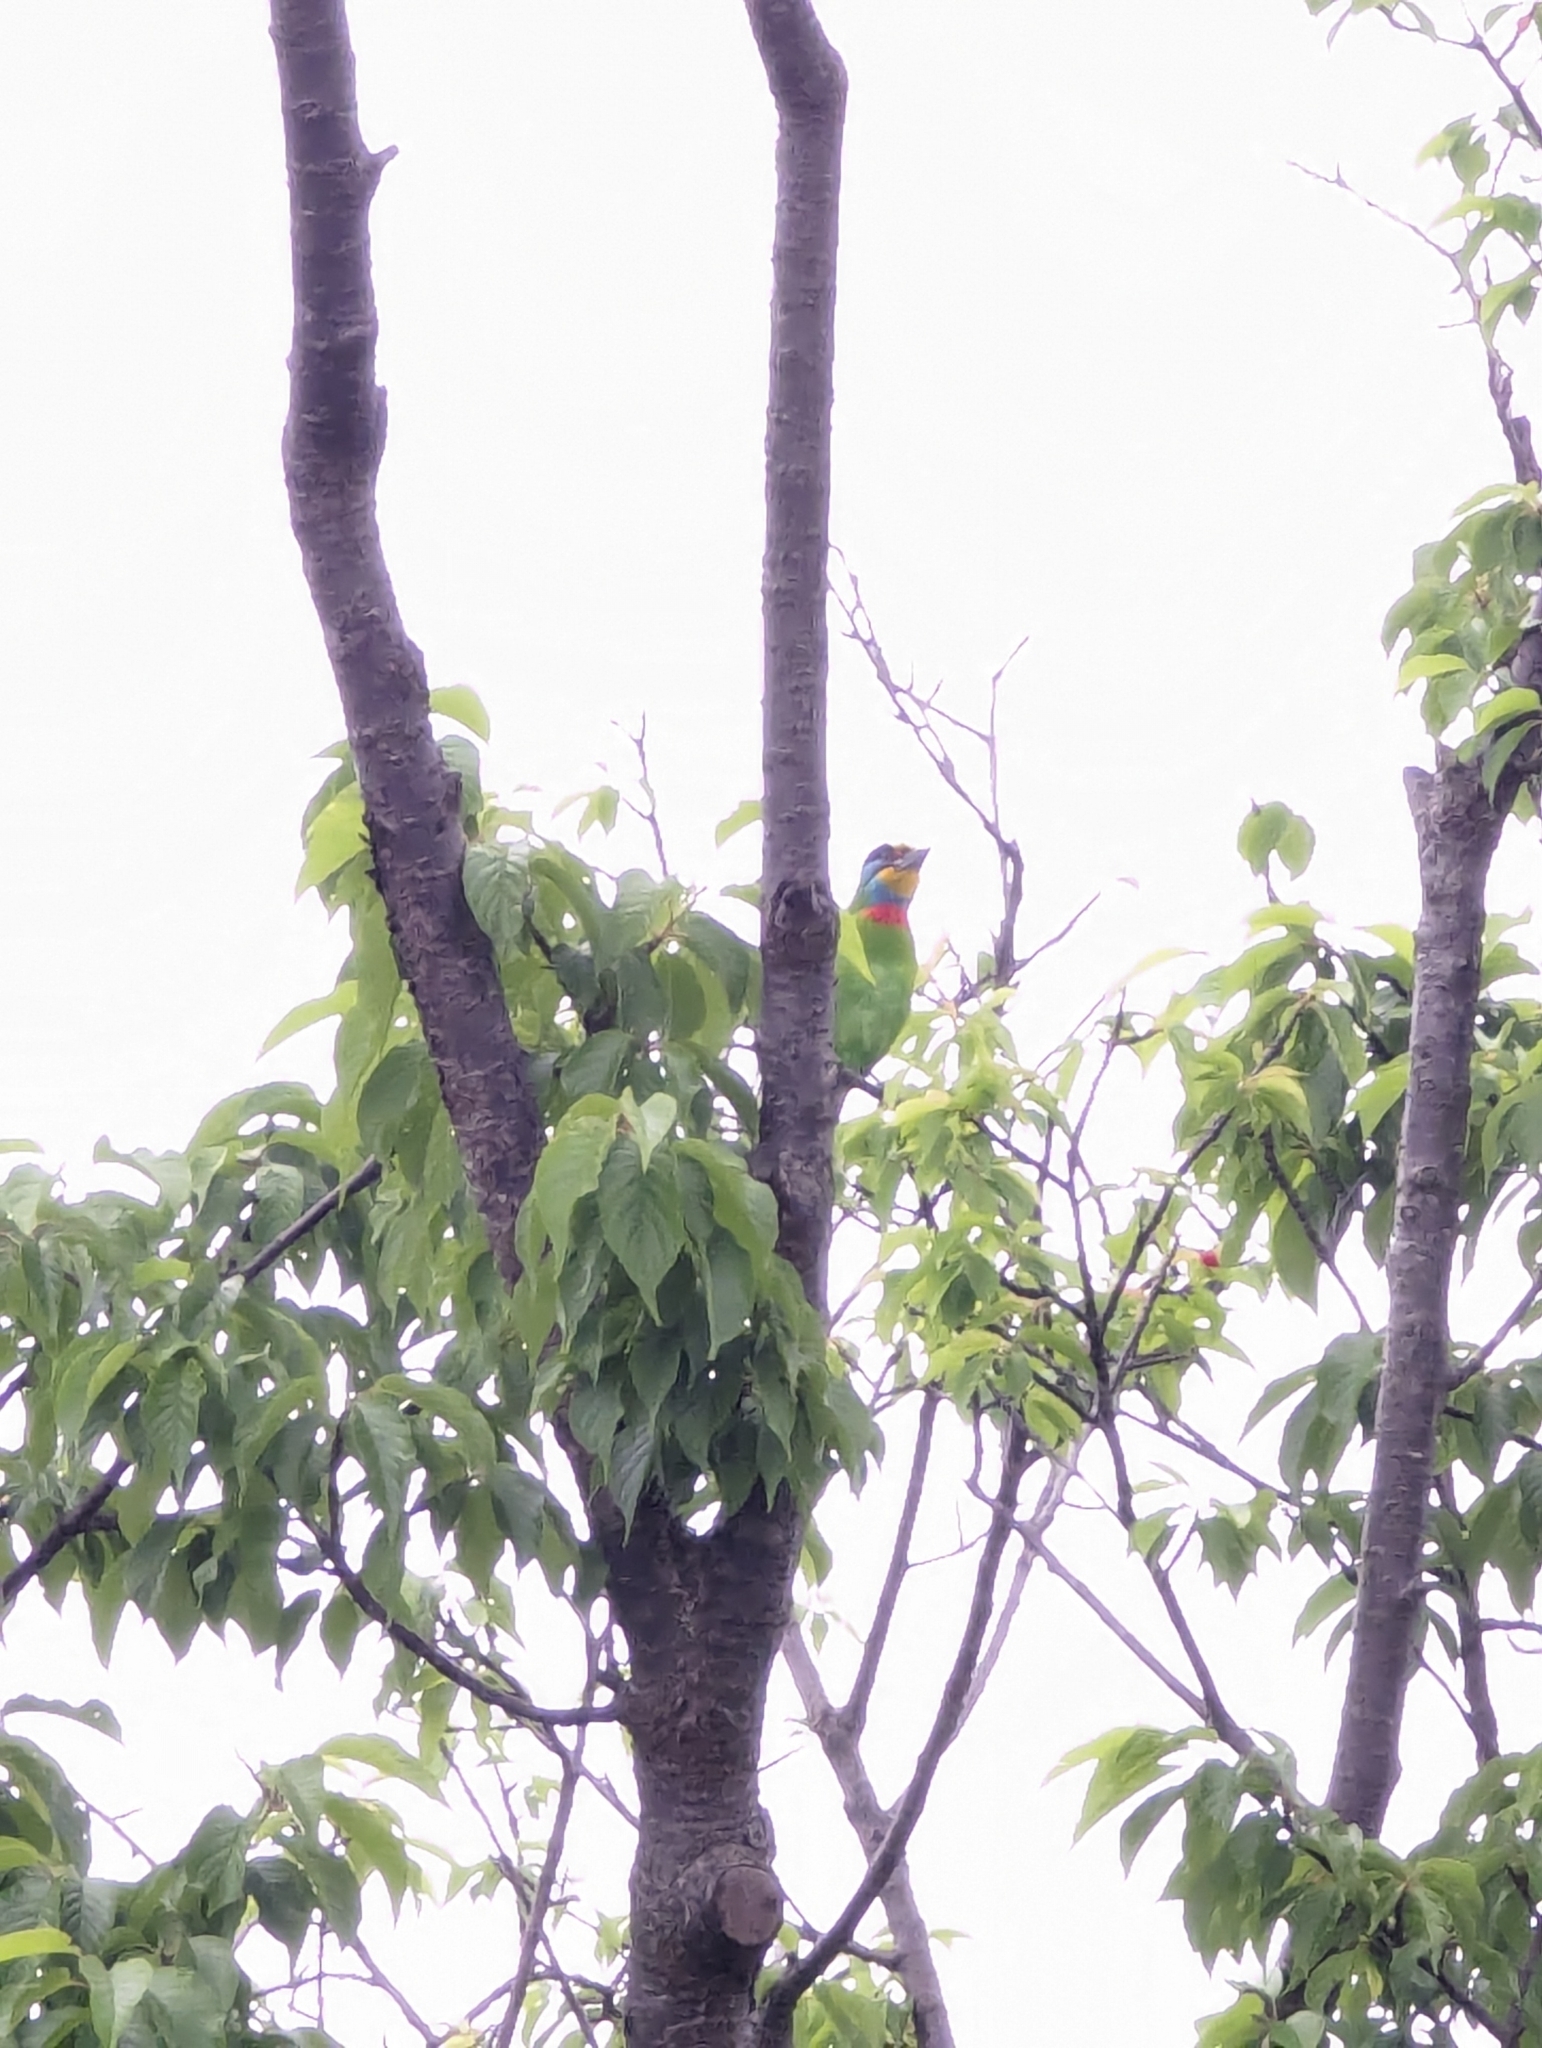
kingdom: Animalia
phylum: Chordata
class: Aves
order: Piciformes
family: Megalaimidae
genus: Psilopogon
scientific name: Psilopogon nuchalis
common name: Taiwan barbet
